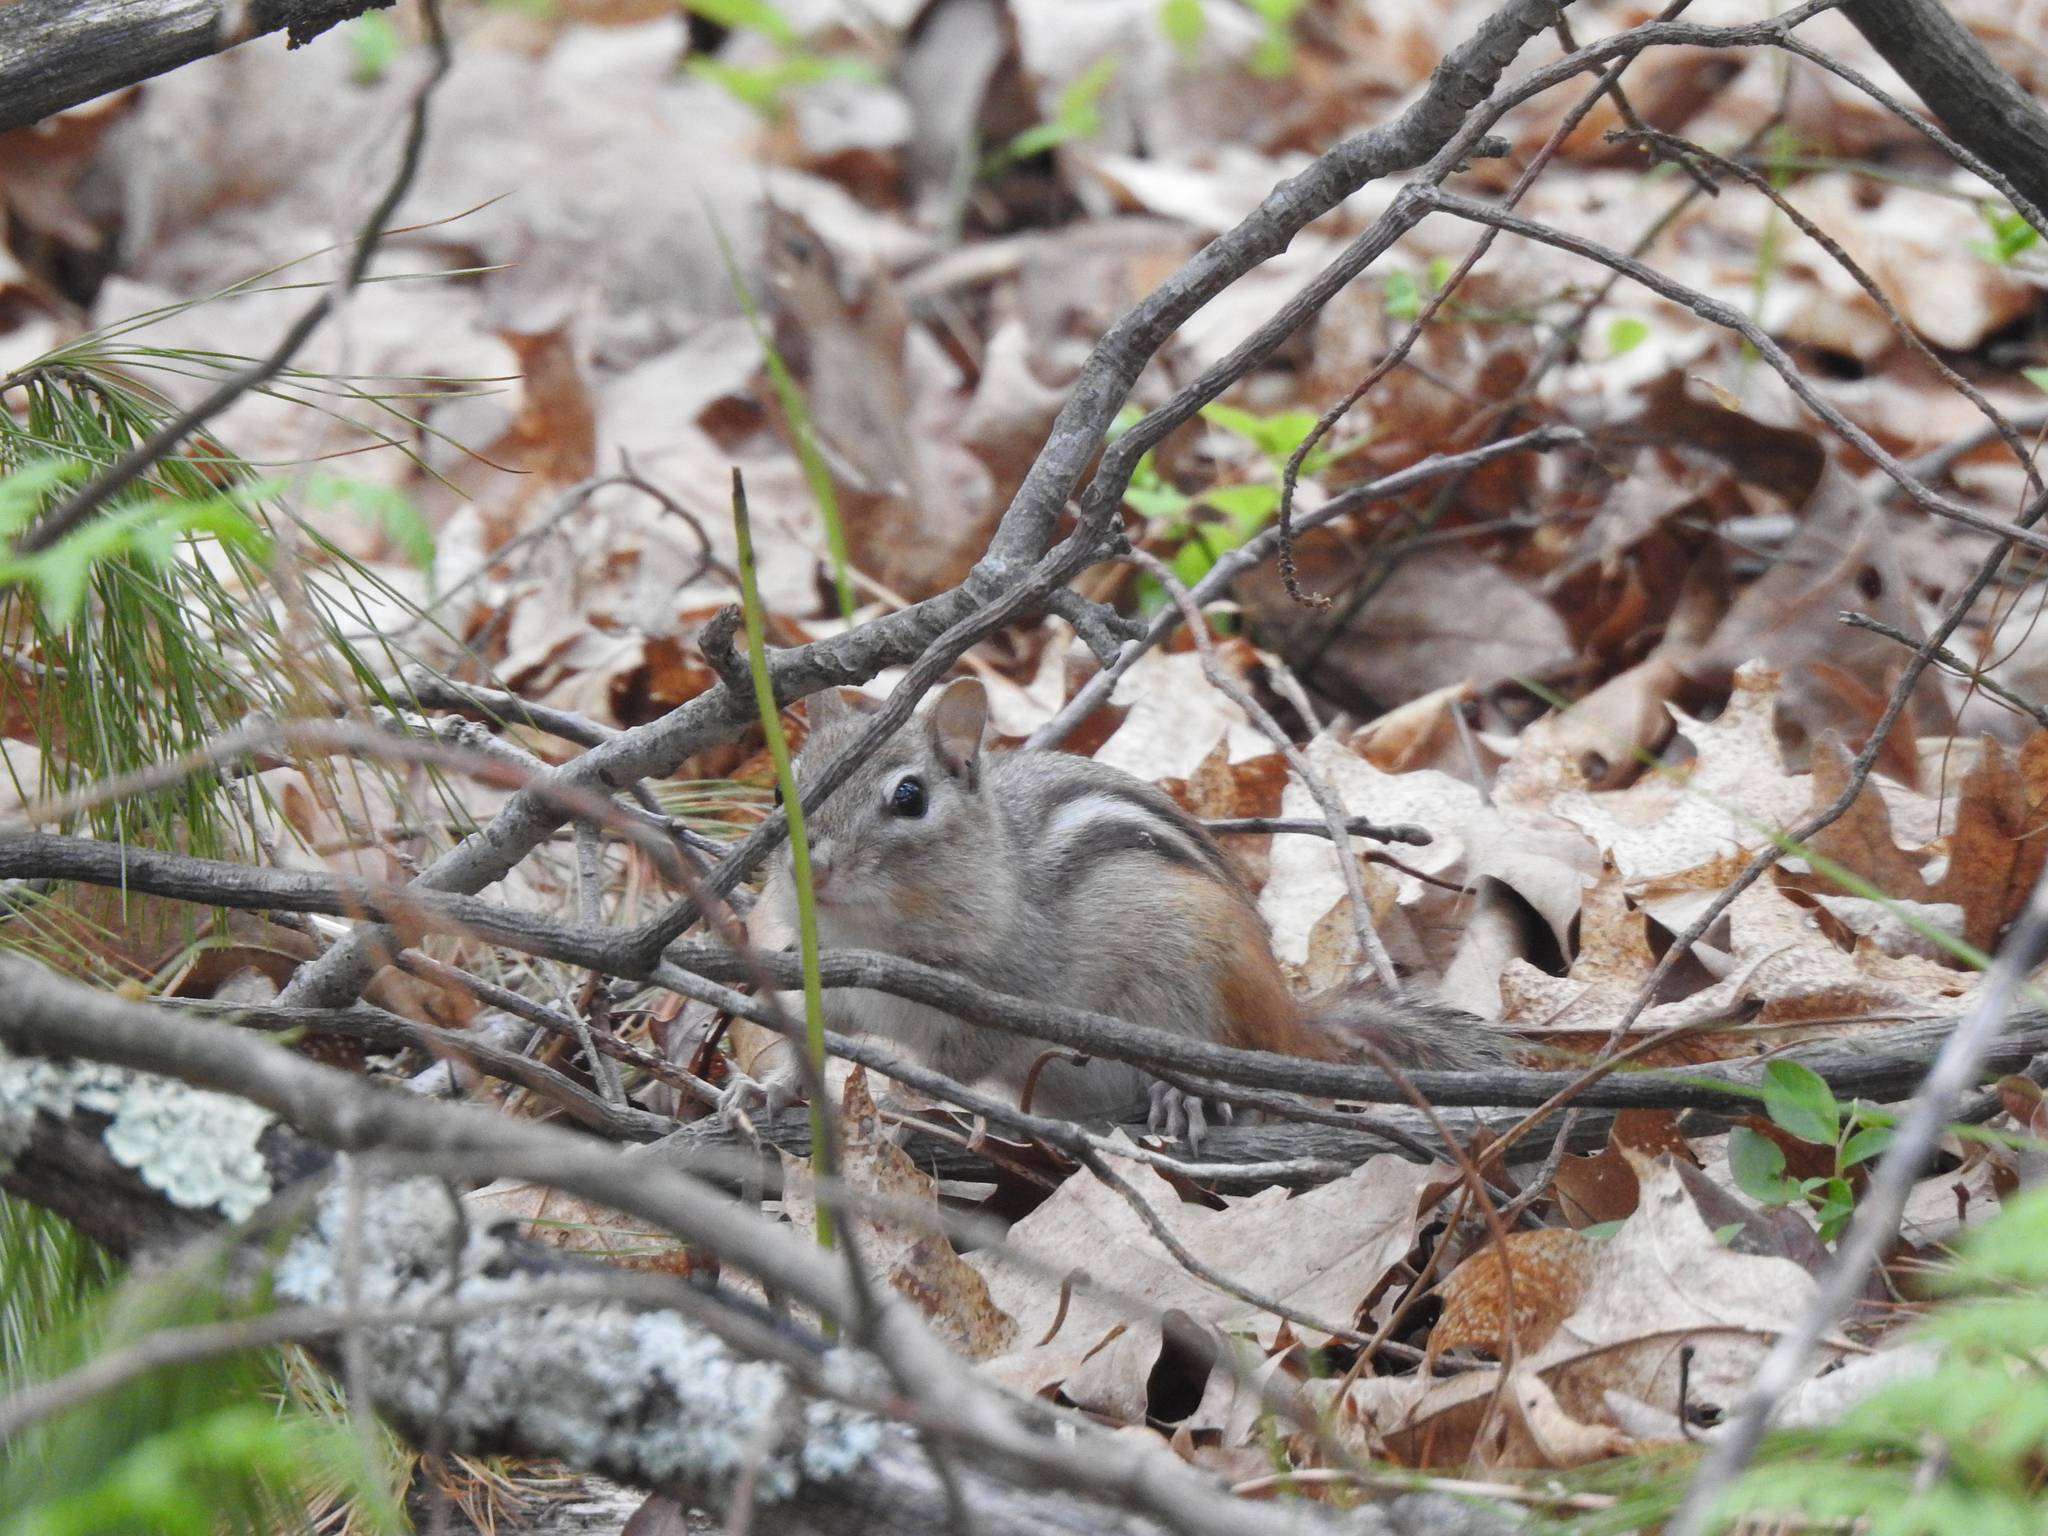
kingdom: Animalia
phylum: Chordata
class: Mammalia
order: Rodentia
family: Sciuridae
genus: Tamias
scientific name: Tamias striatus
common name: Eastern chipmunk
